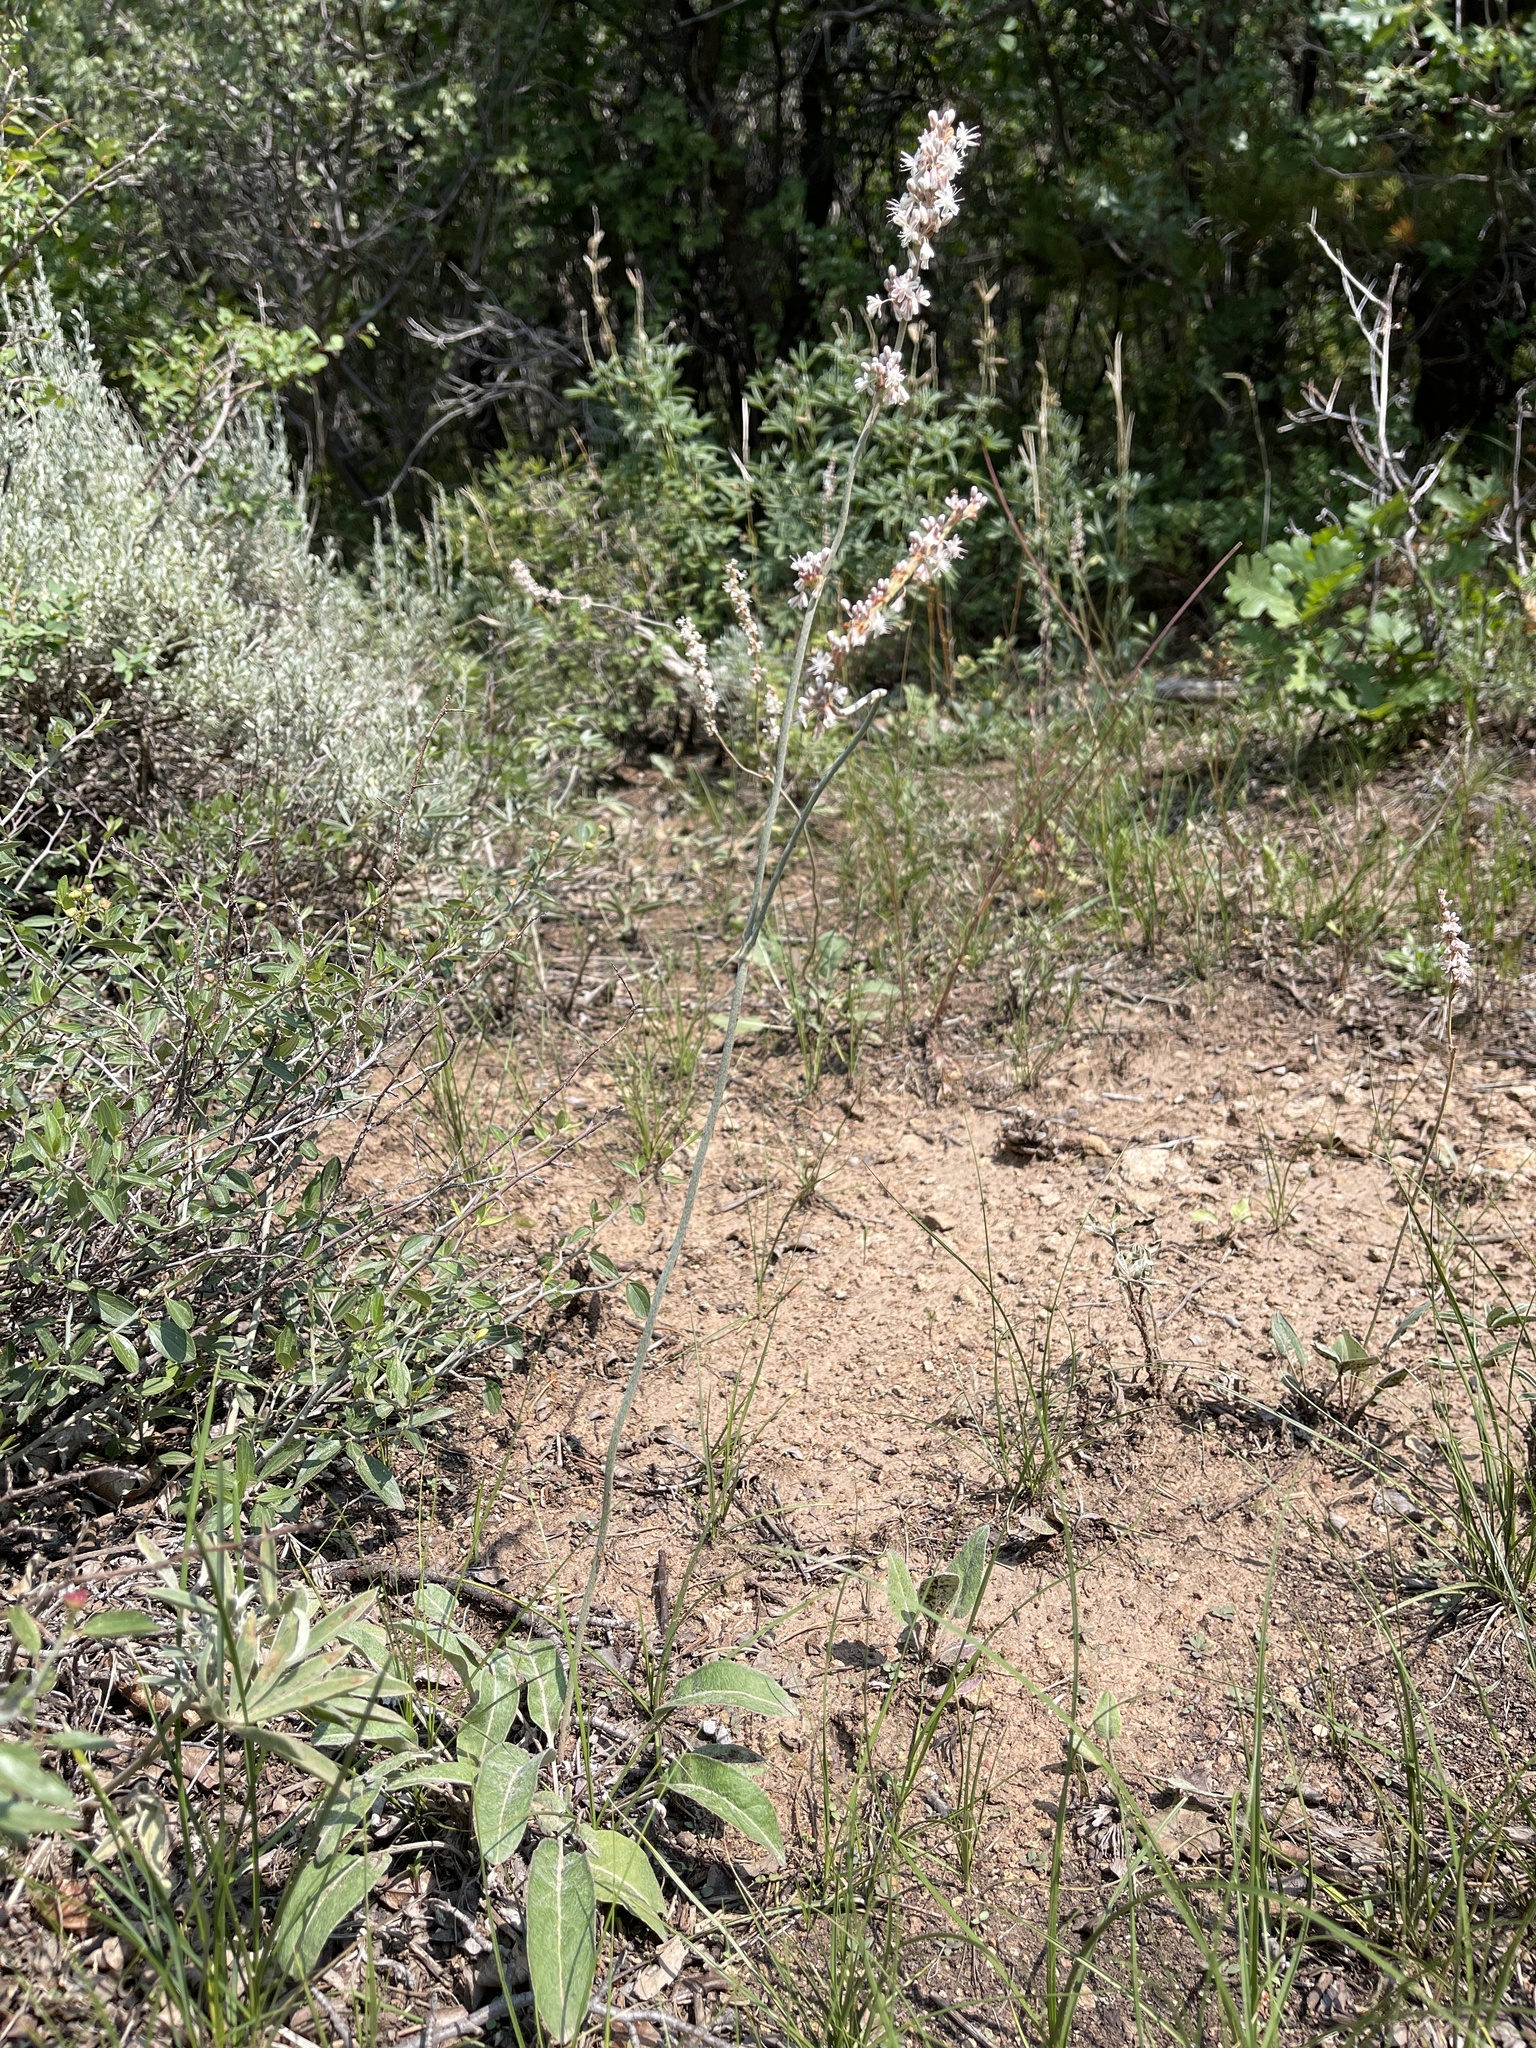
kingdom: Plantae
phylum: Tracheophyta
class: Magnoliopsida
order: Caryophyllales
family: Polygonaceae
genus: Eriogonum
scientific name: Eriogonum racemosum
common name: Redroot wild buckwheat
